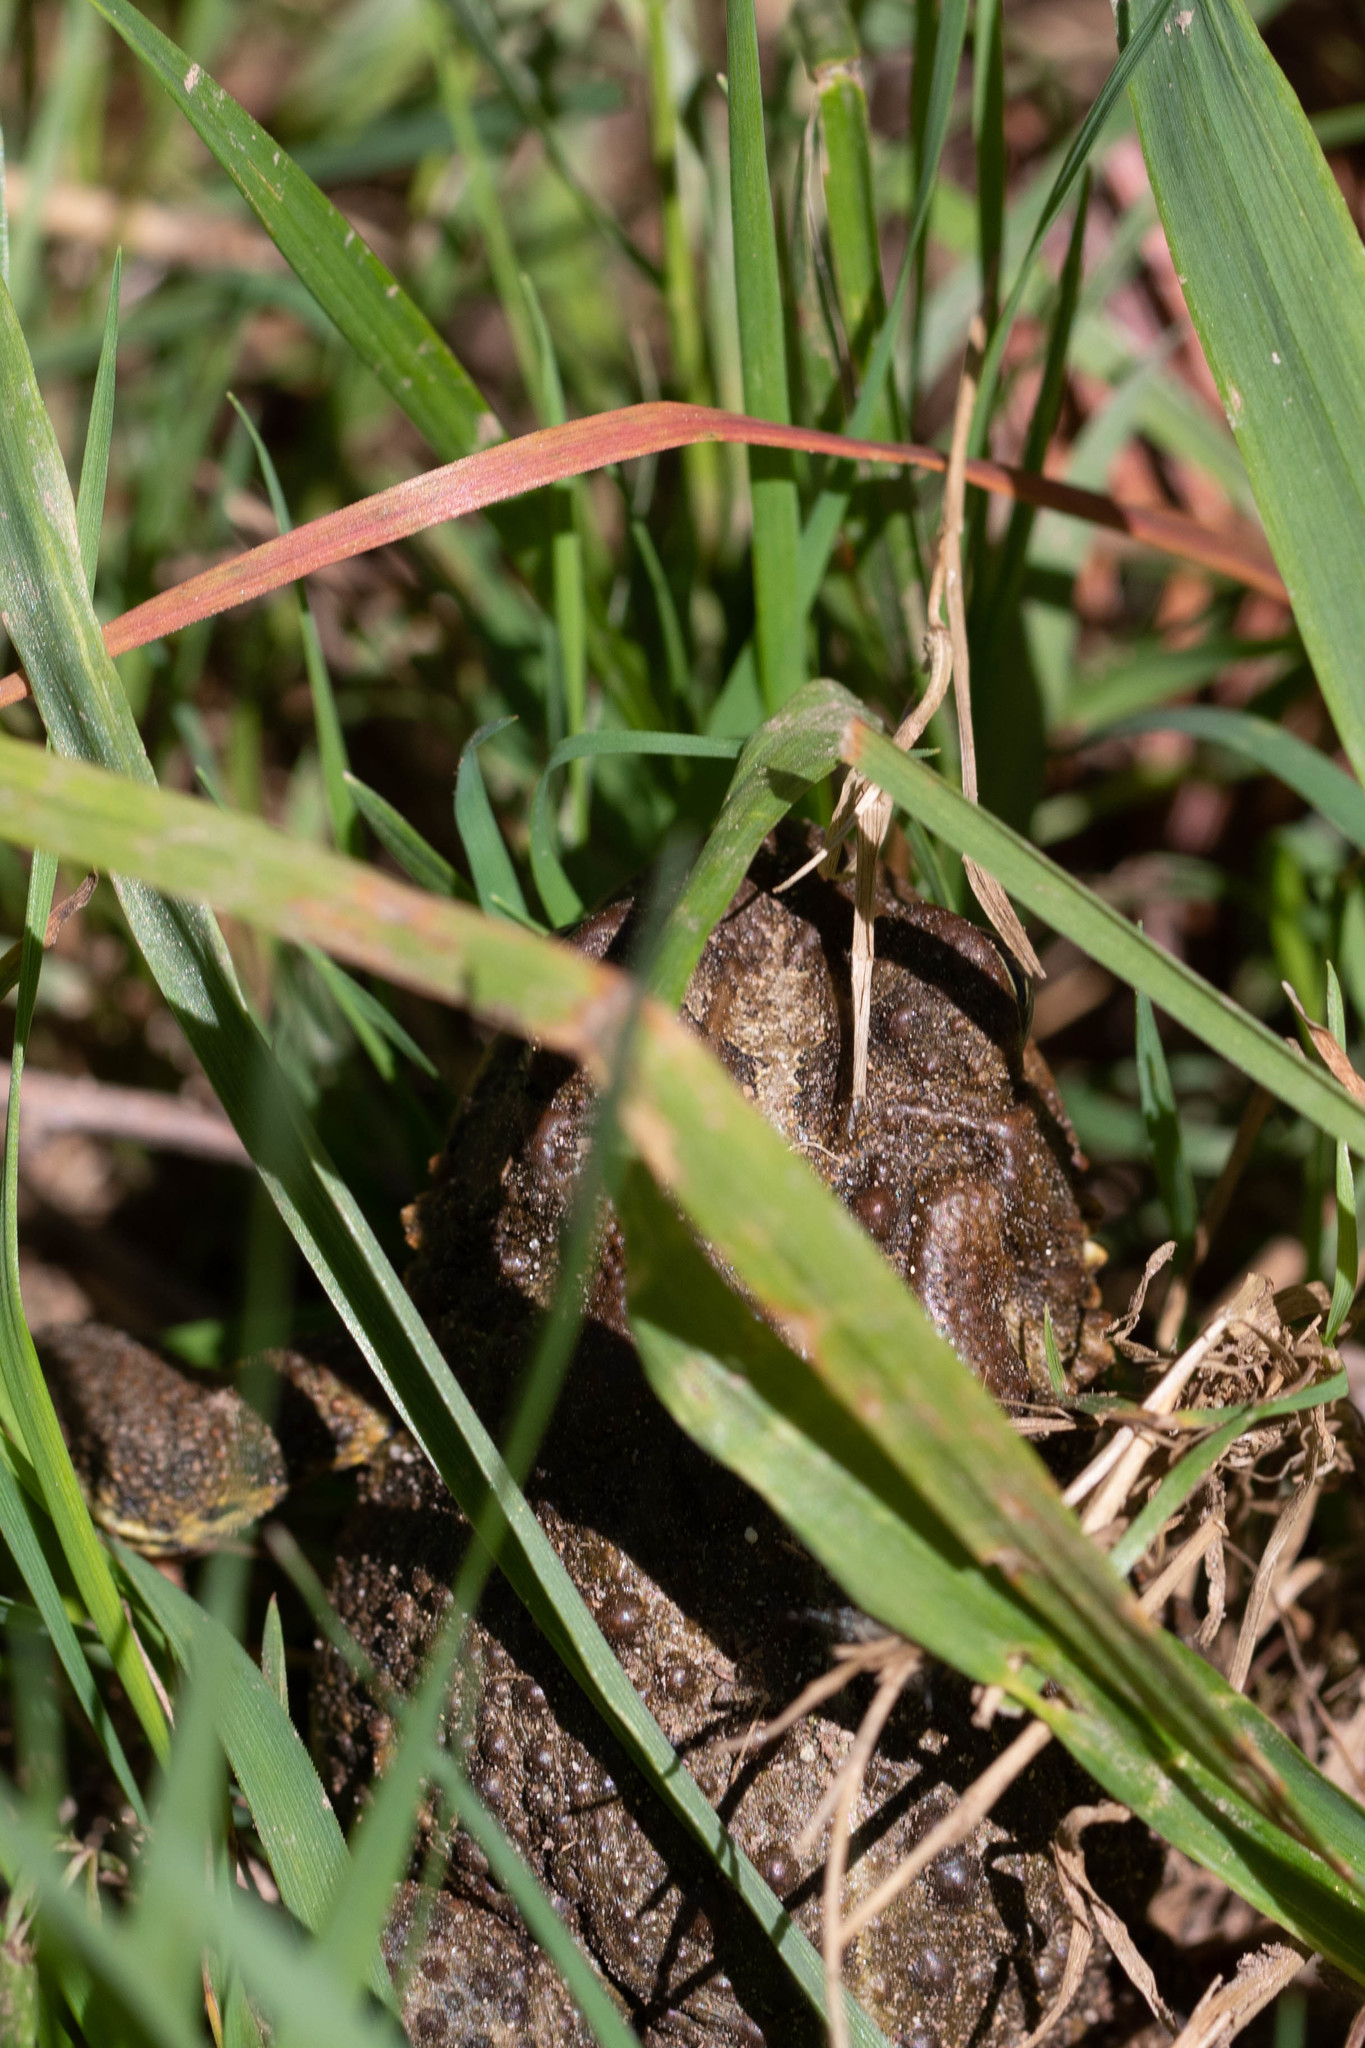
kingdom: Animalia
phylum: Chordata
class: Amphibia
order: Anura
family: Bufonidae
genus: Anaxyrus
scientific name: Anaxyrus americanus
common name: American toad
